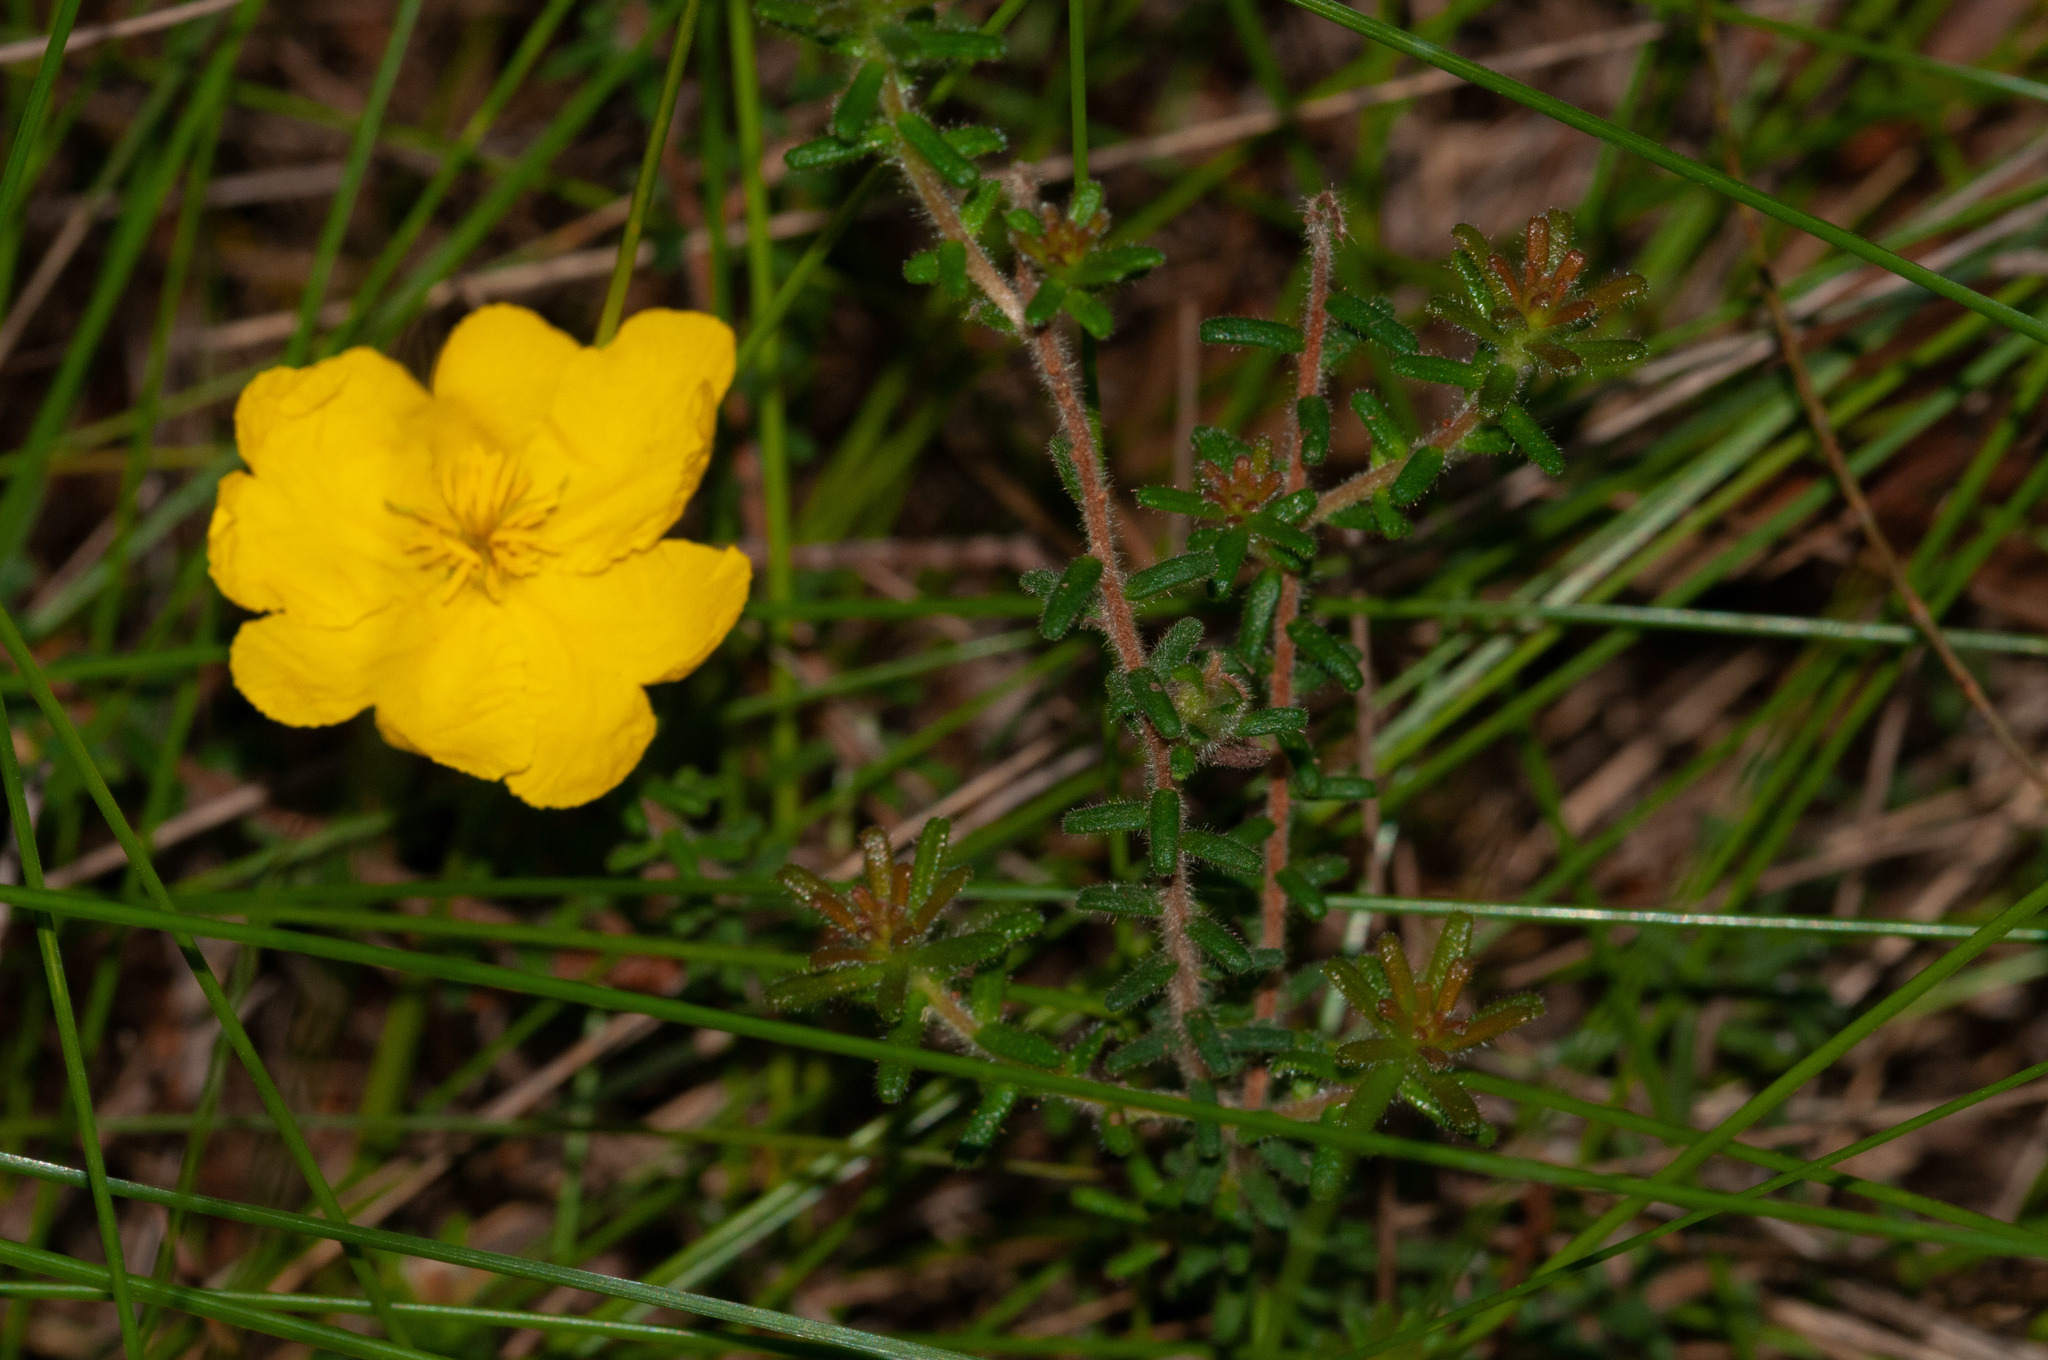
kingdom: Plantae
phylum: Tracheophyta
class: Magnoliopsida
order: Dilleniales
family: Dilleniaceae
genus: Hibbertia
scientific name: Hibbertia vestita
